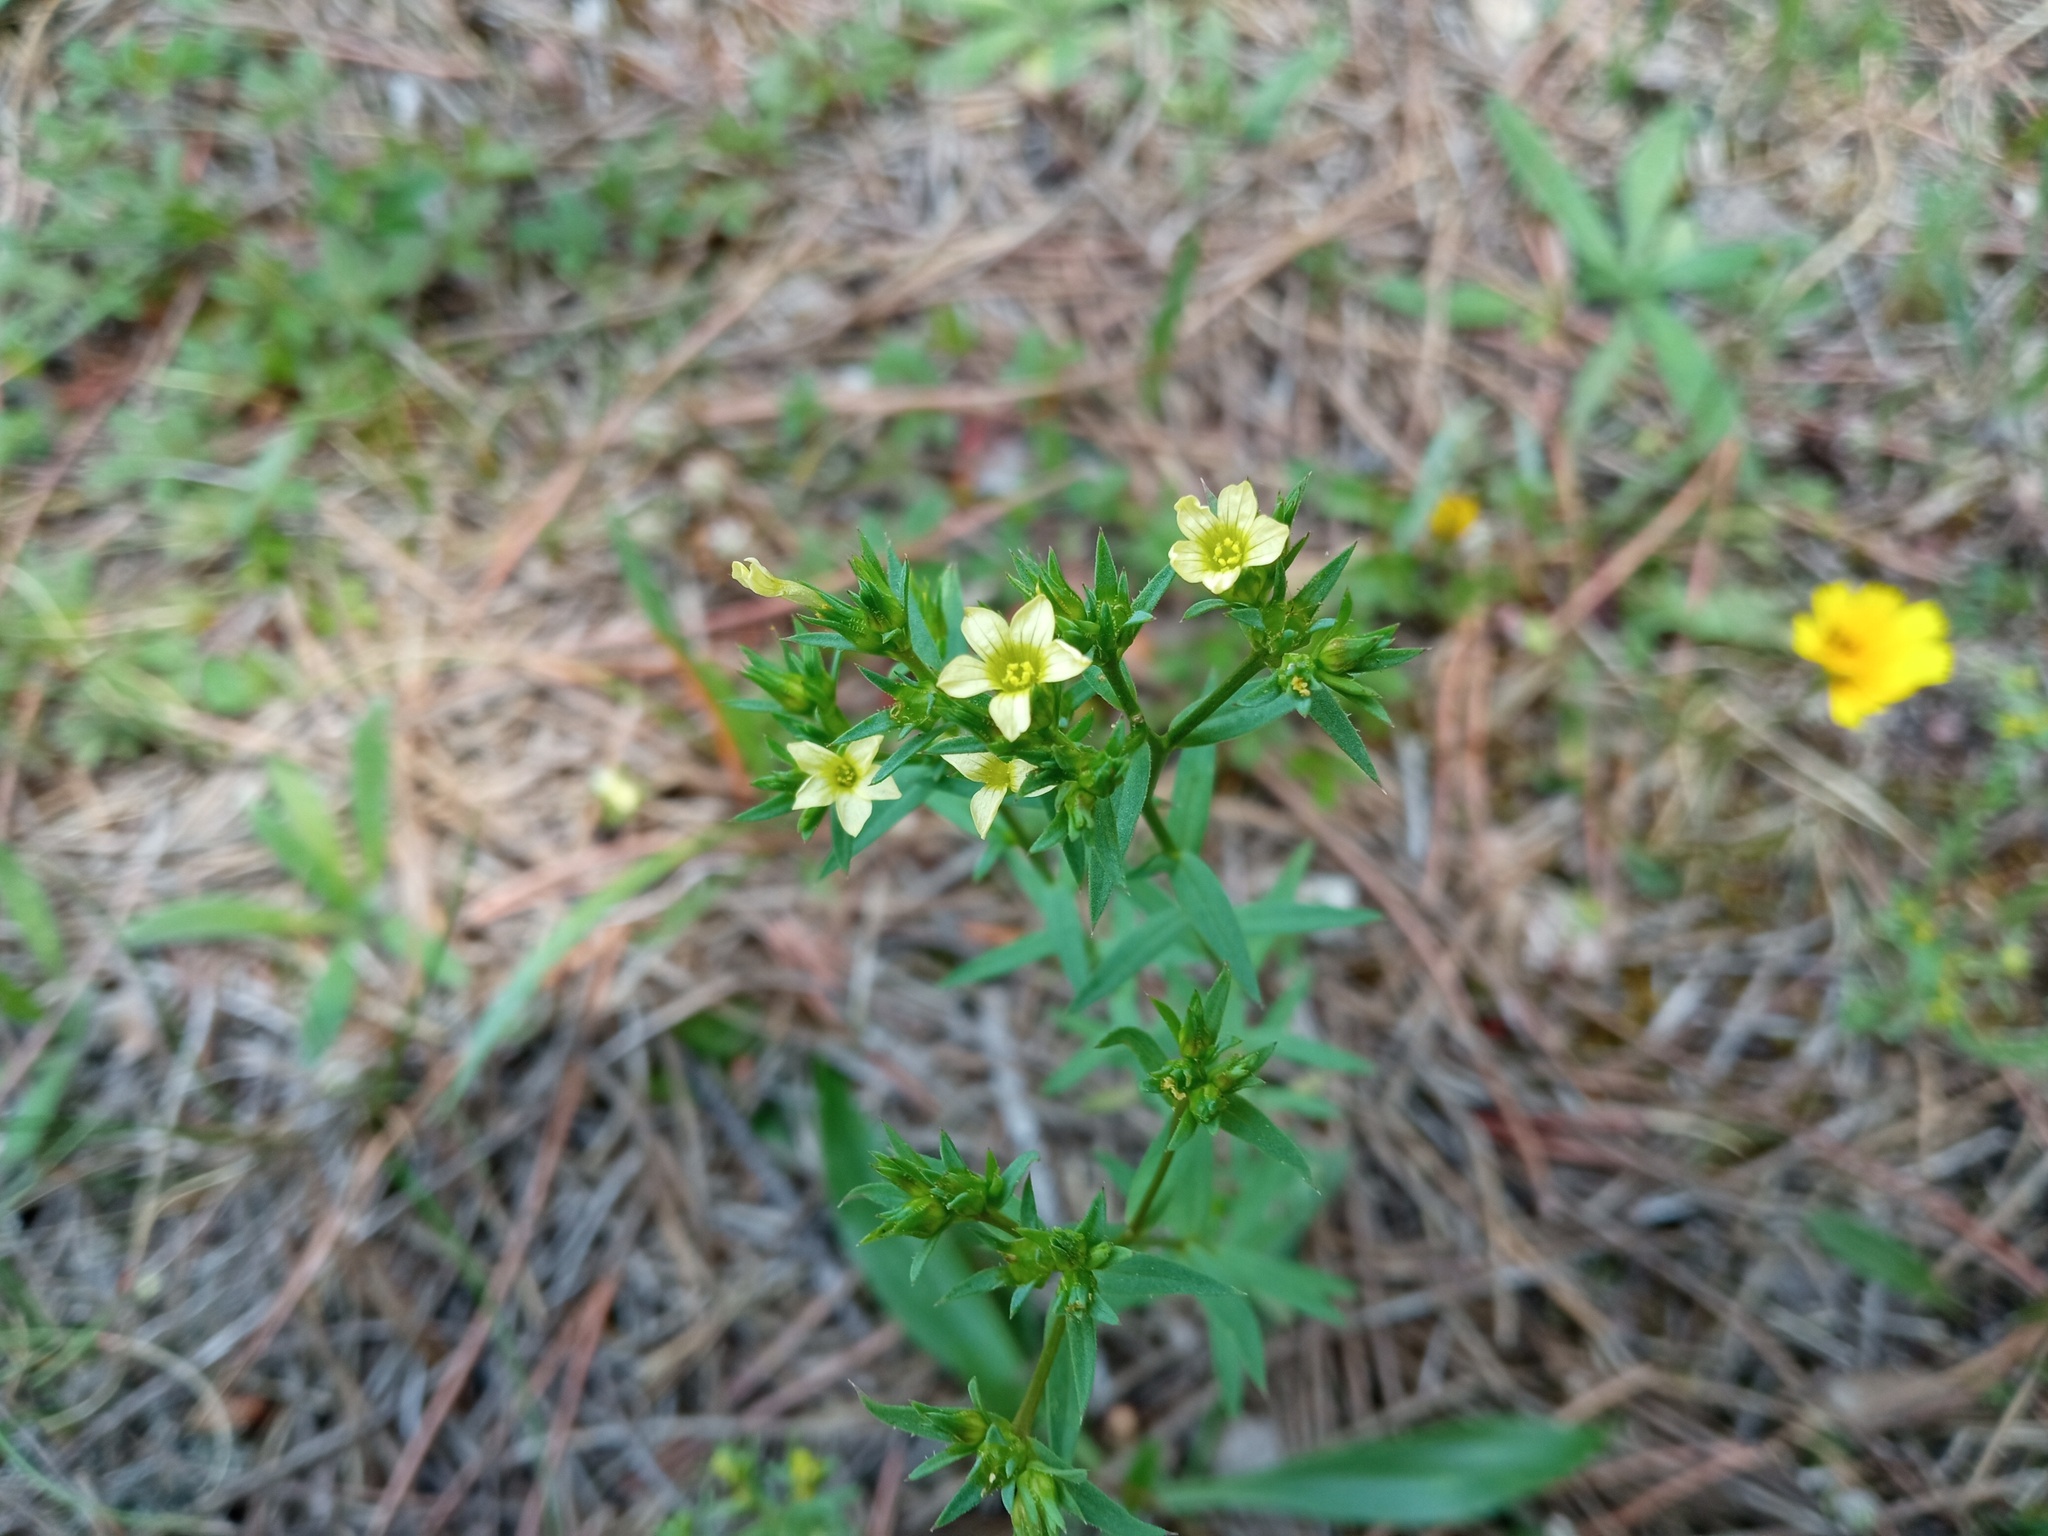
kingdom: Plantae
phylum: Tracheophyta
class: Magnoliopsida
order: Malpighiales
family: Linaceae
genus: Linum
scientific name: Linum strictum
